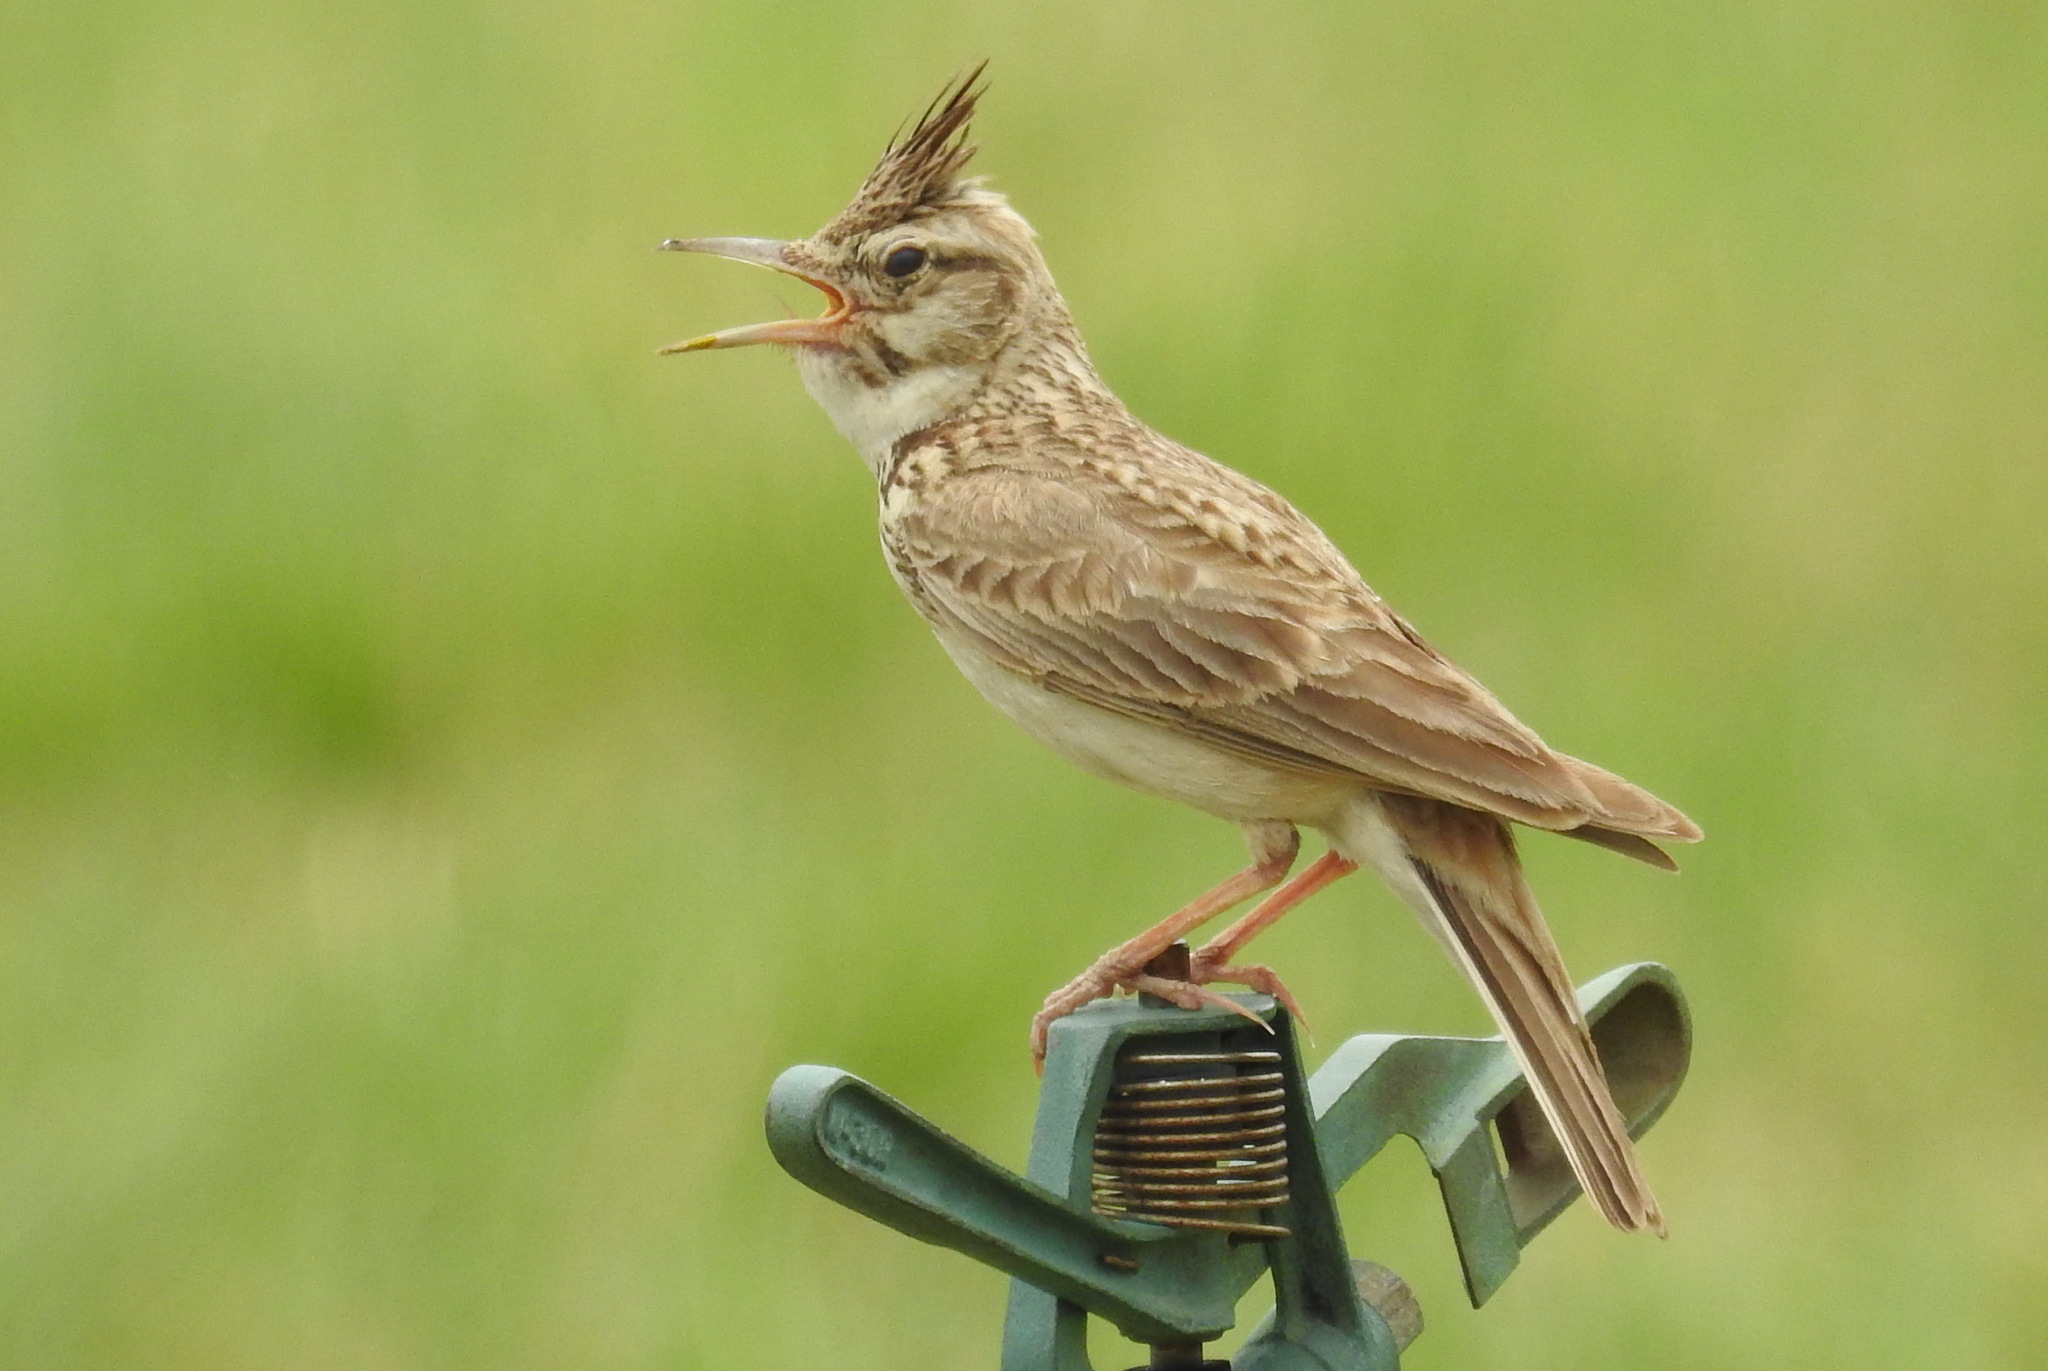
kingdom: Animalia
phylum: Chordata
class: Aves
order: Passeriformes
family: Alaudidae
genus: Galerida
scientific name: Galerida cristata
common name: Crested lark
